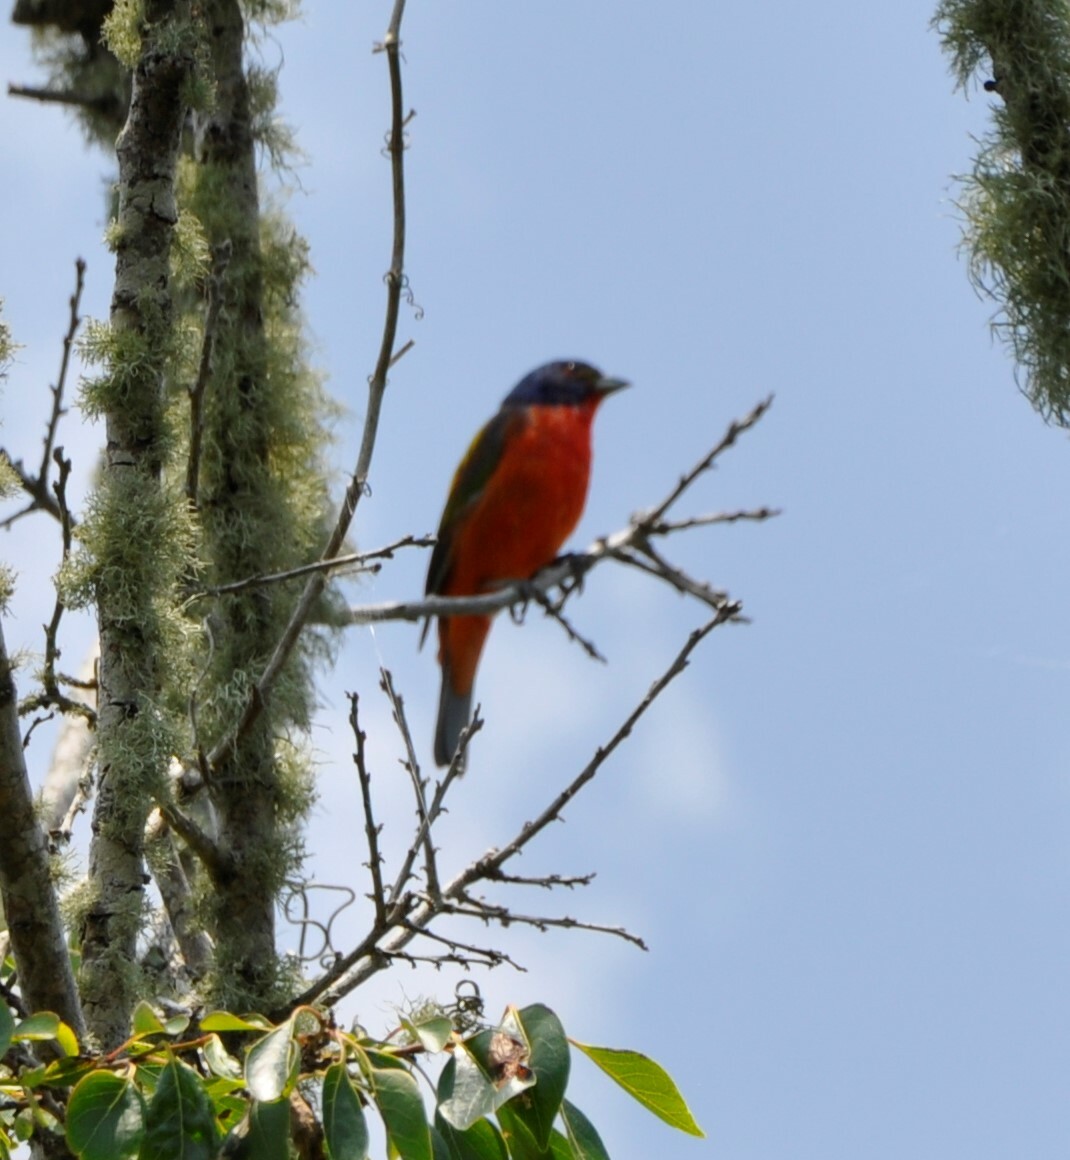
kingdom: Animalia
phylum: Chordata
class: Aves
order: Passeriformes
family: Cardinalidae
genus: Passerina
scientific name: Passerina ciris
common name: Painted bunting
